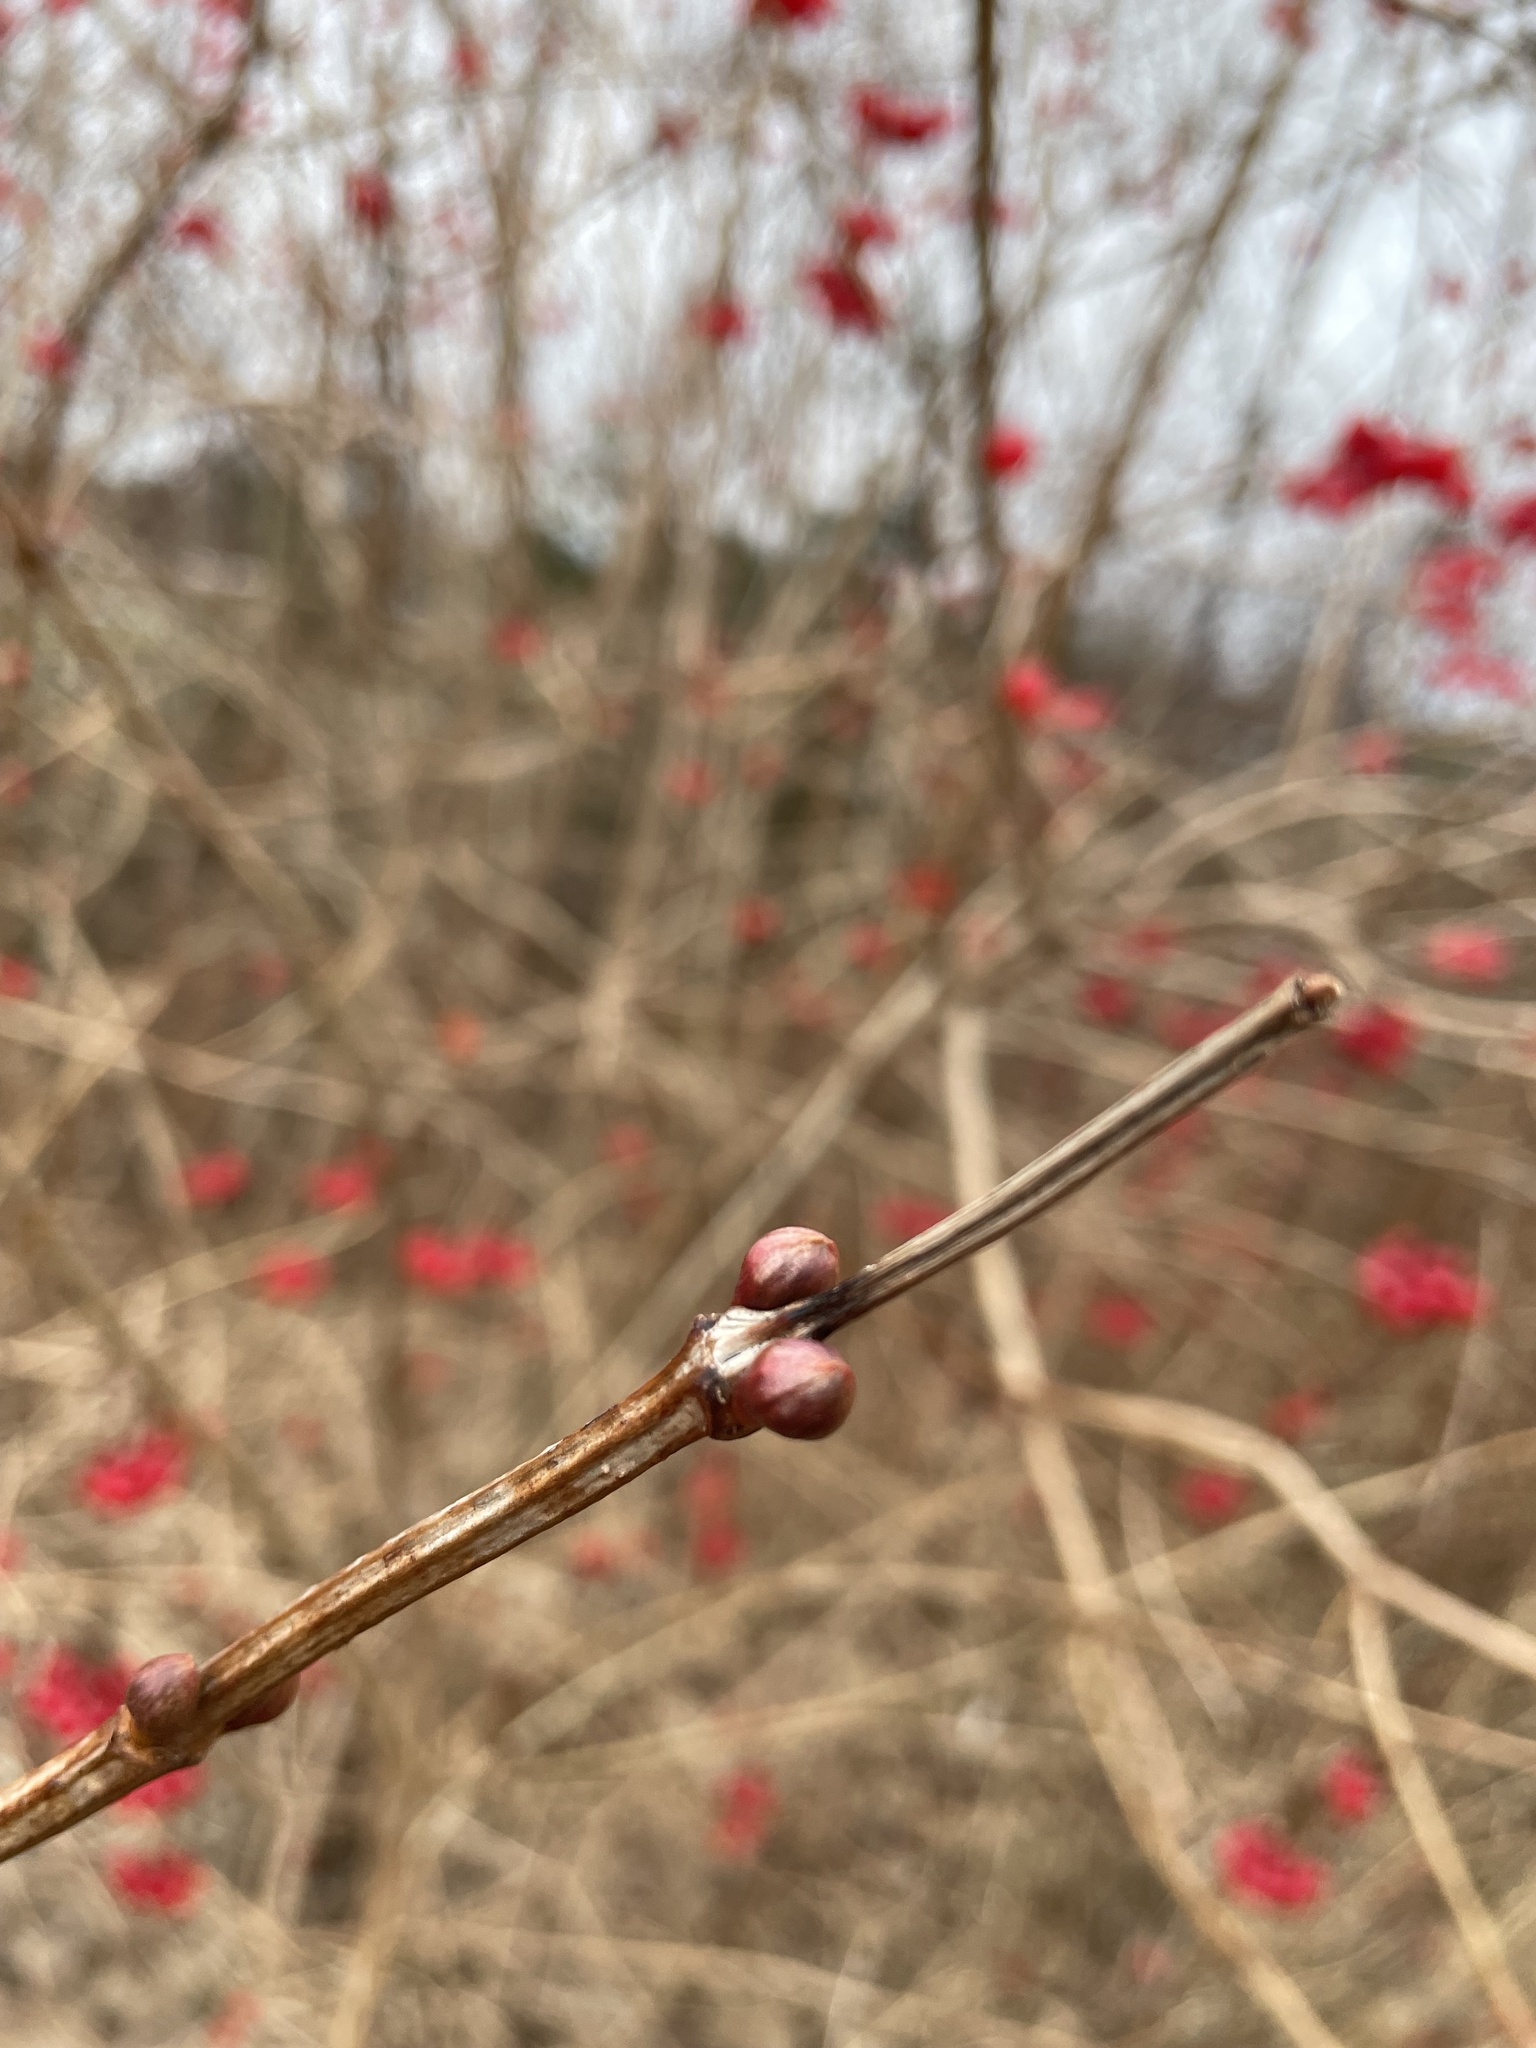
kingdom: Plantae
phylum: Tracheophyta
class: Magnoliopsida
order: Dipsacales
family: Viburnaceae
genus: Viburnum
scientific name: Viburnum opulus
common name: Guelder-rose
